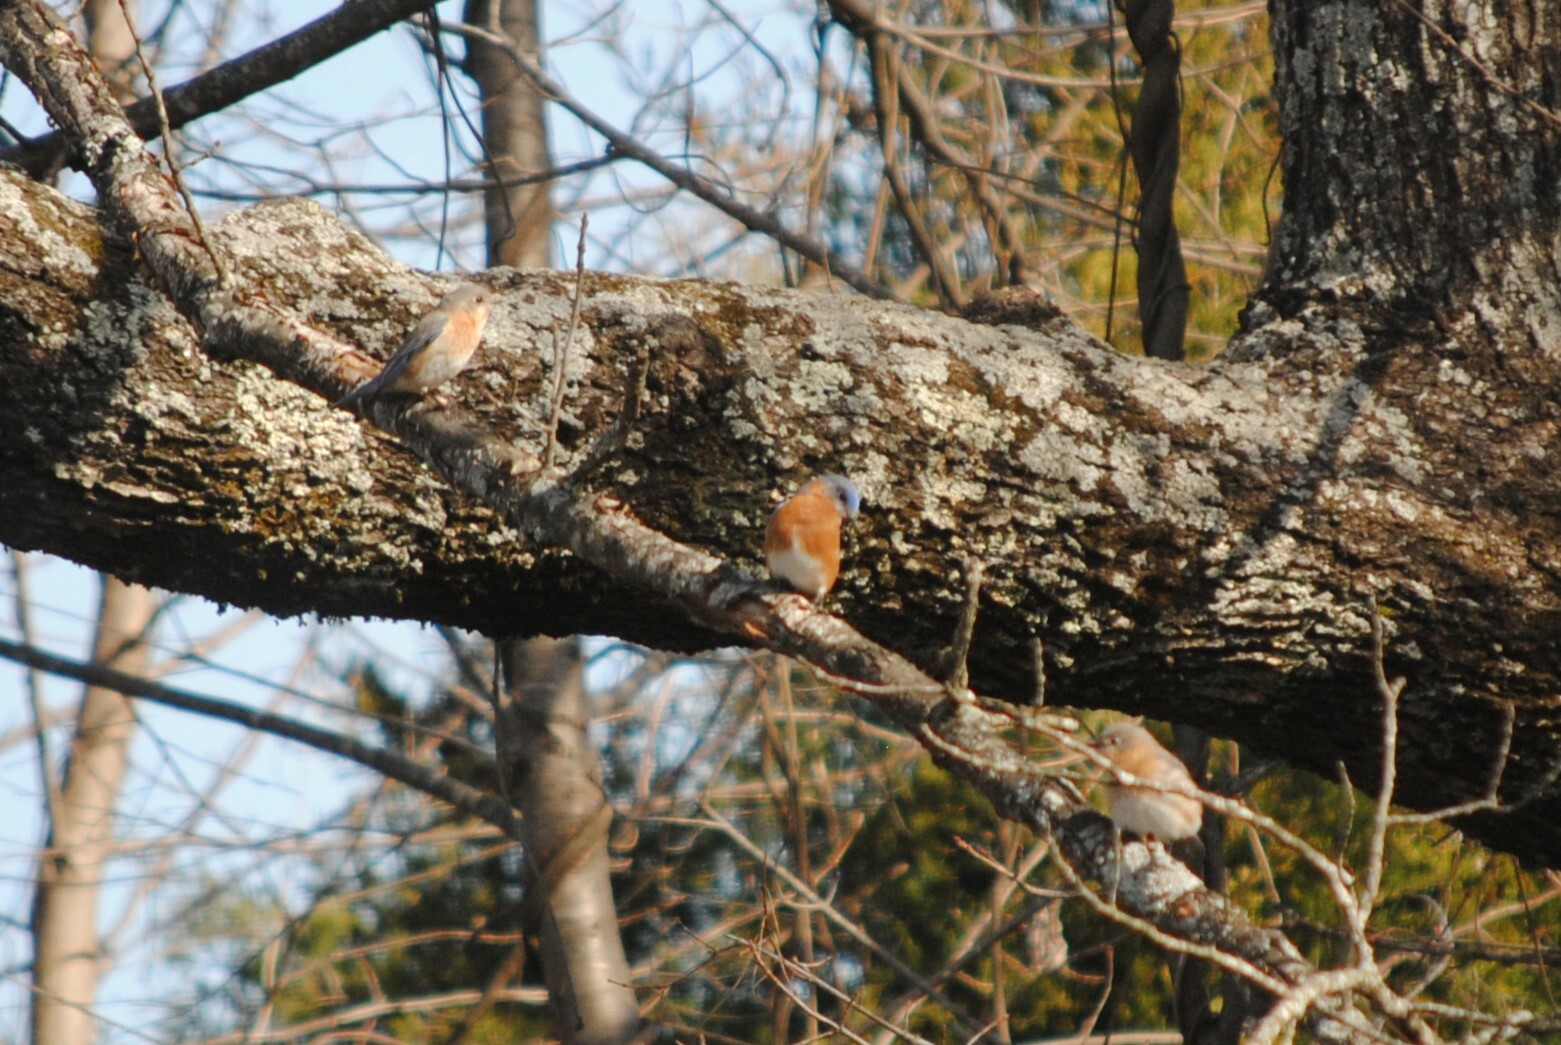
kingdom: Animalia
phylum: Chordata
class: Aves
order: Passeriformes
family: Turdidae
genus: Sialia
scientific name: Sialia sialis
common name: Eastern bluebird
